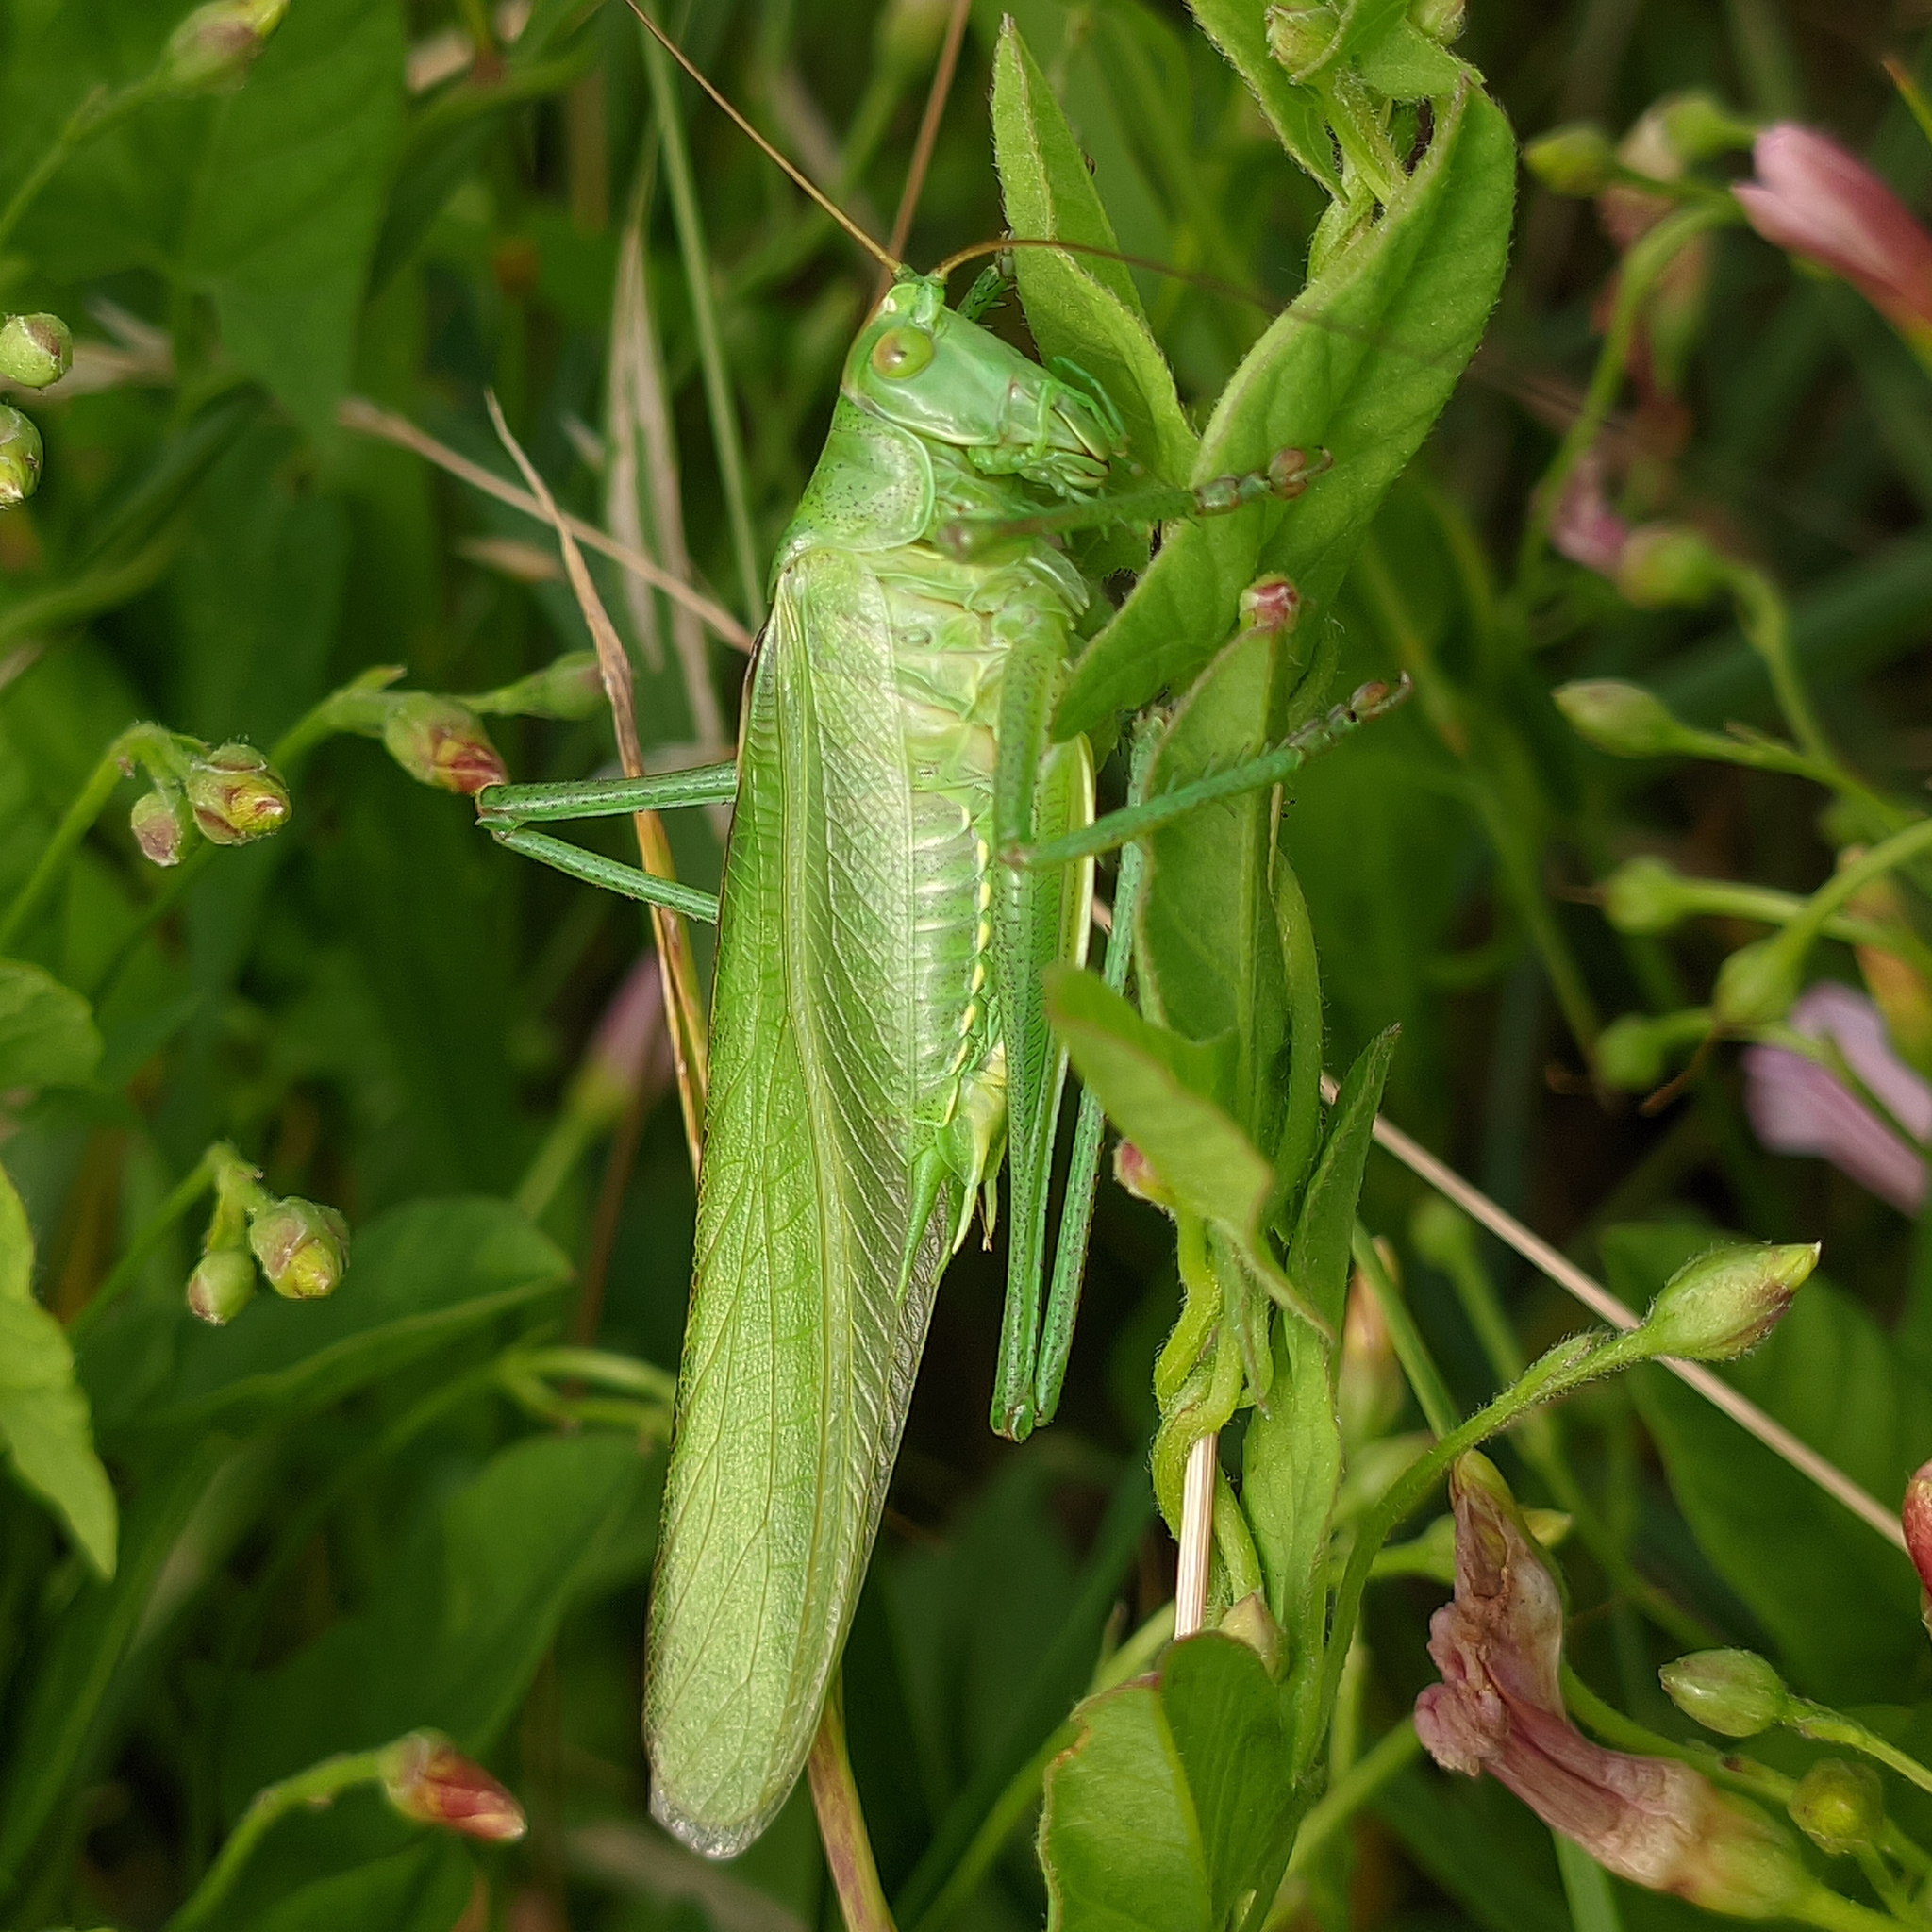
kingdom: Animalia
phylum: Arthropoda
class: Insecta
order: Orthoptera
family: Tettigoniidae
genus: Tettigonia
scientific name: Tettigonia viridissima
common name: Great green bush-cricket
